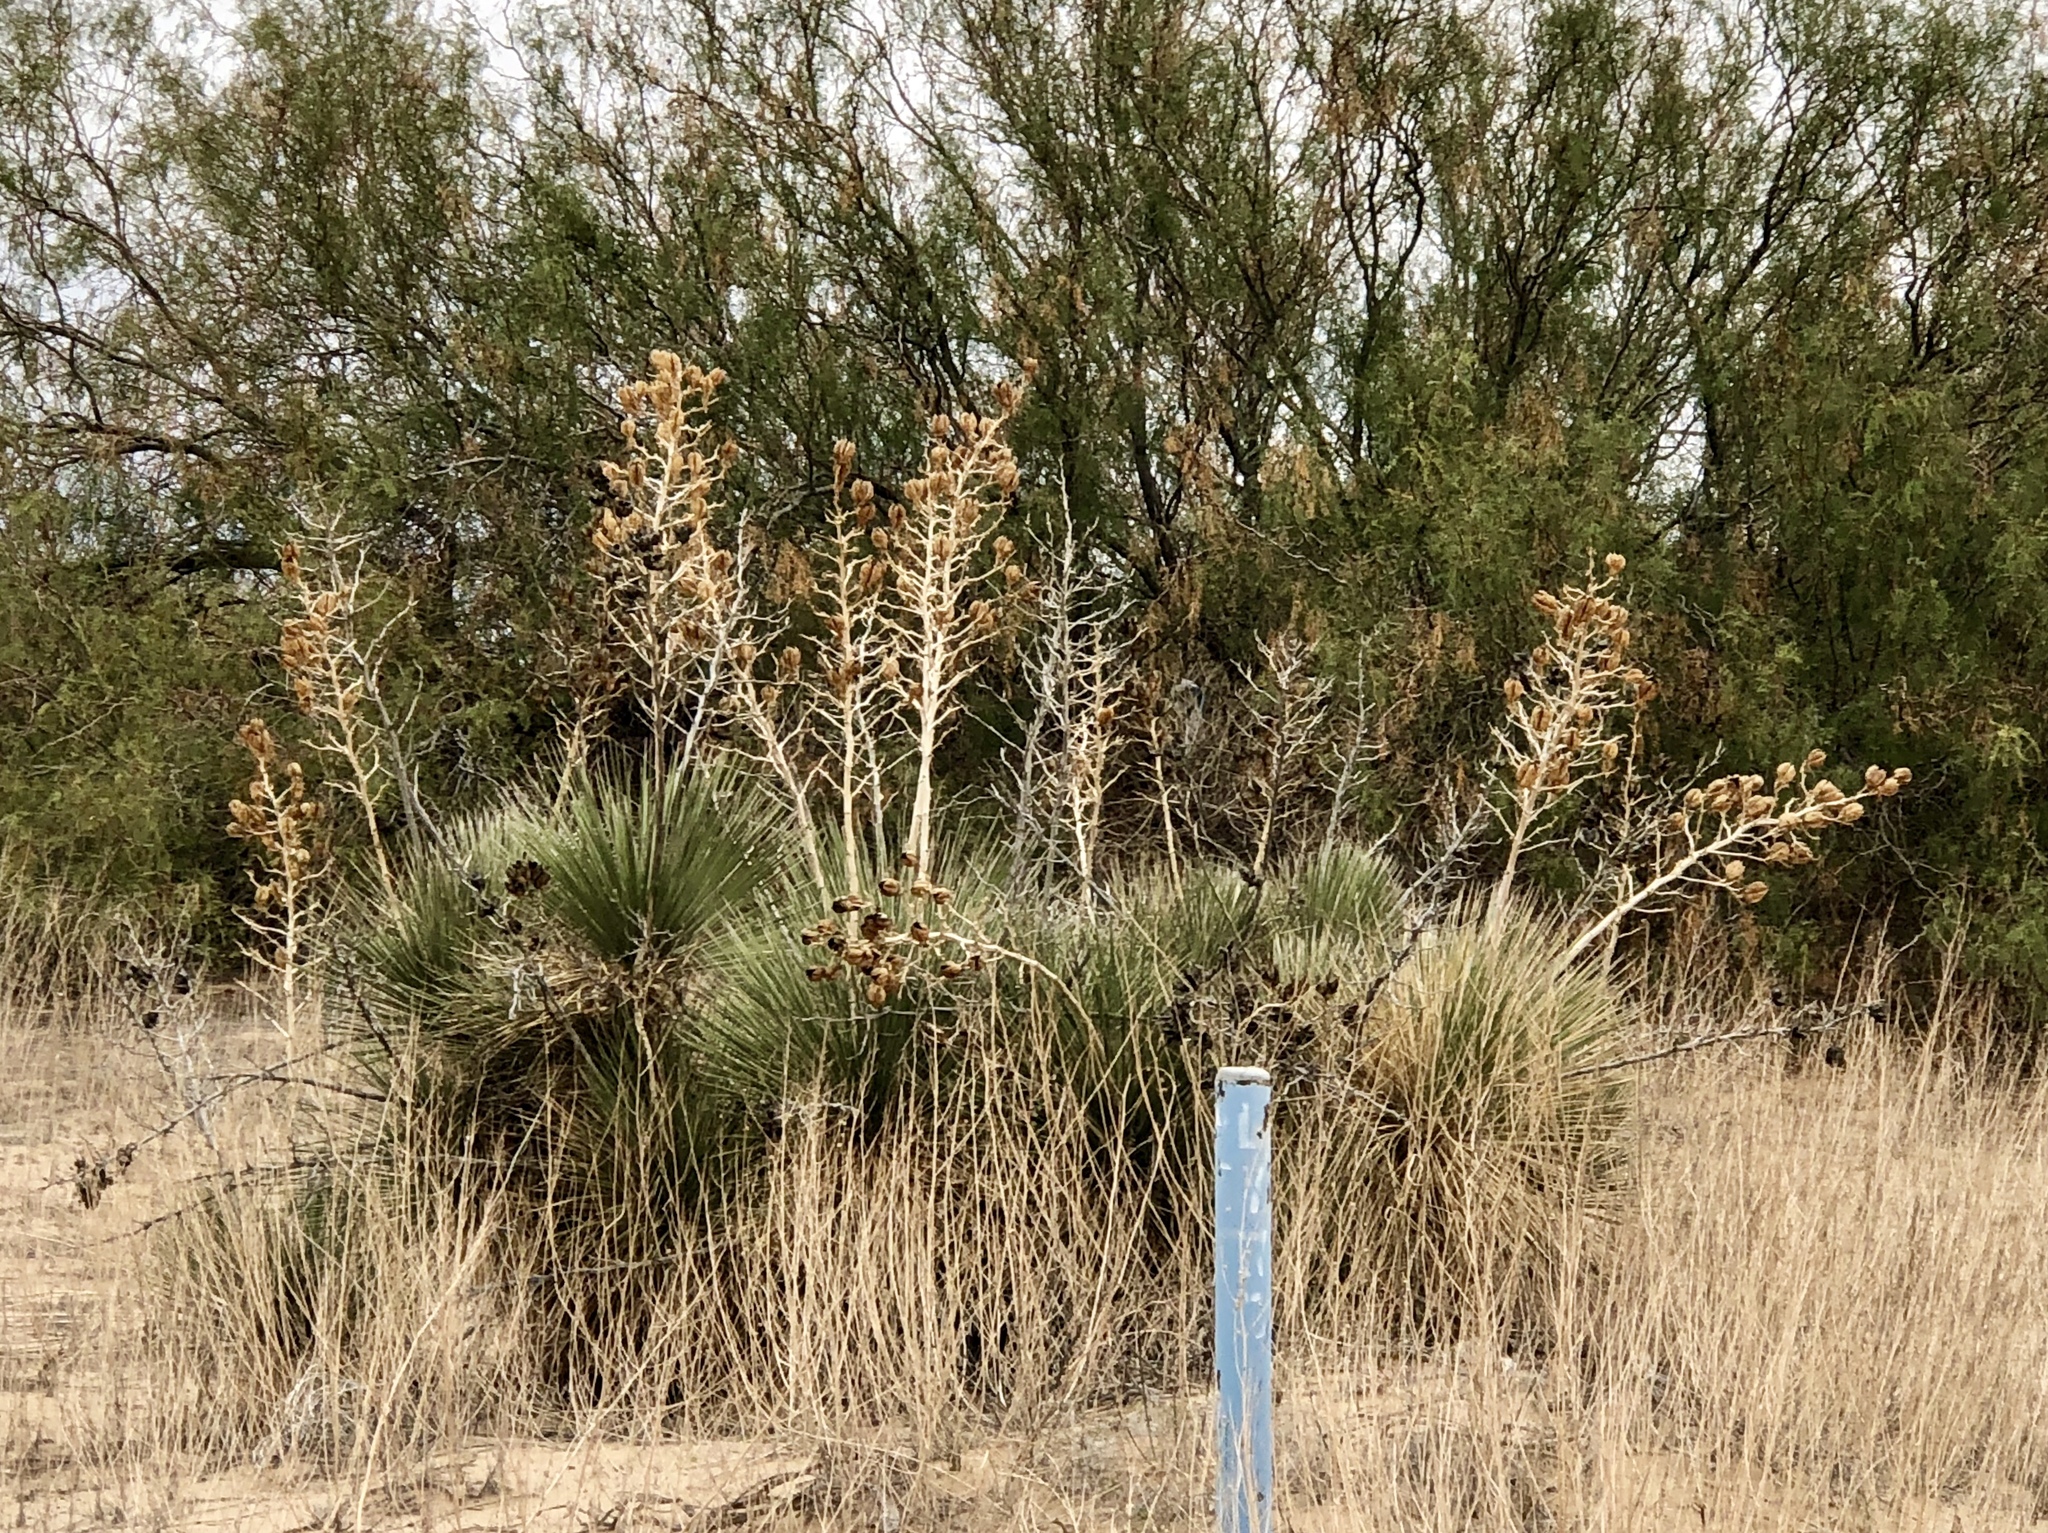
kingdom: Plantae
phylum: Tracheophyta
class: Liliopsida
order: Asparagales
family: Asparagaceae
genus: Yucca
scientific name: Yucca elata
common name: Palmella
